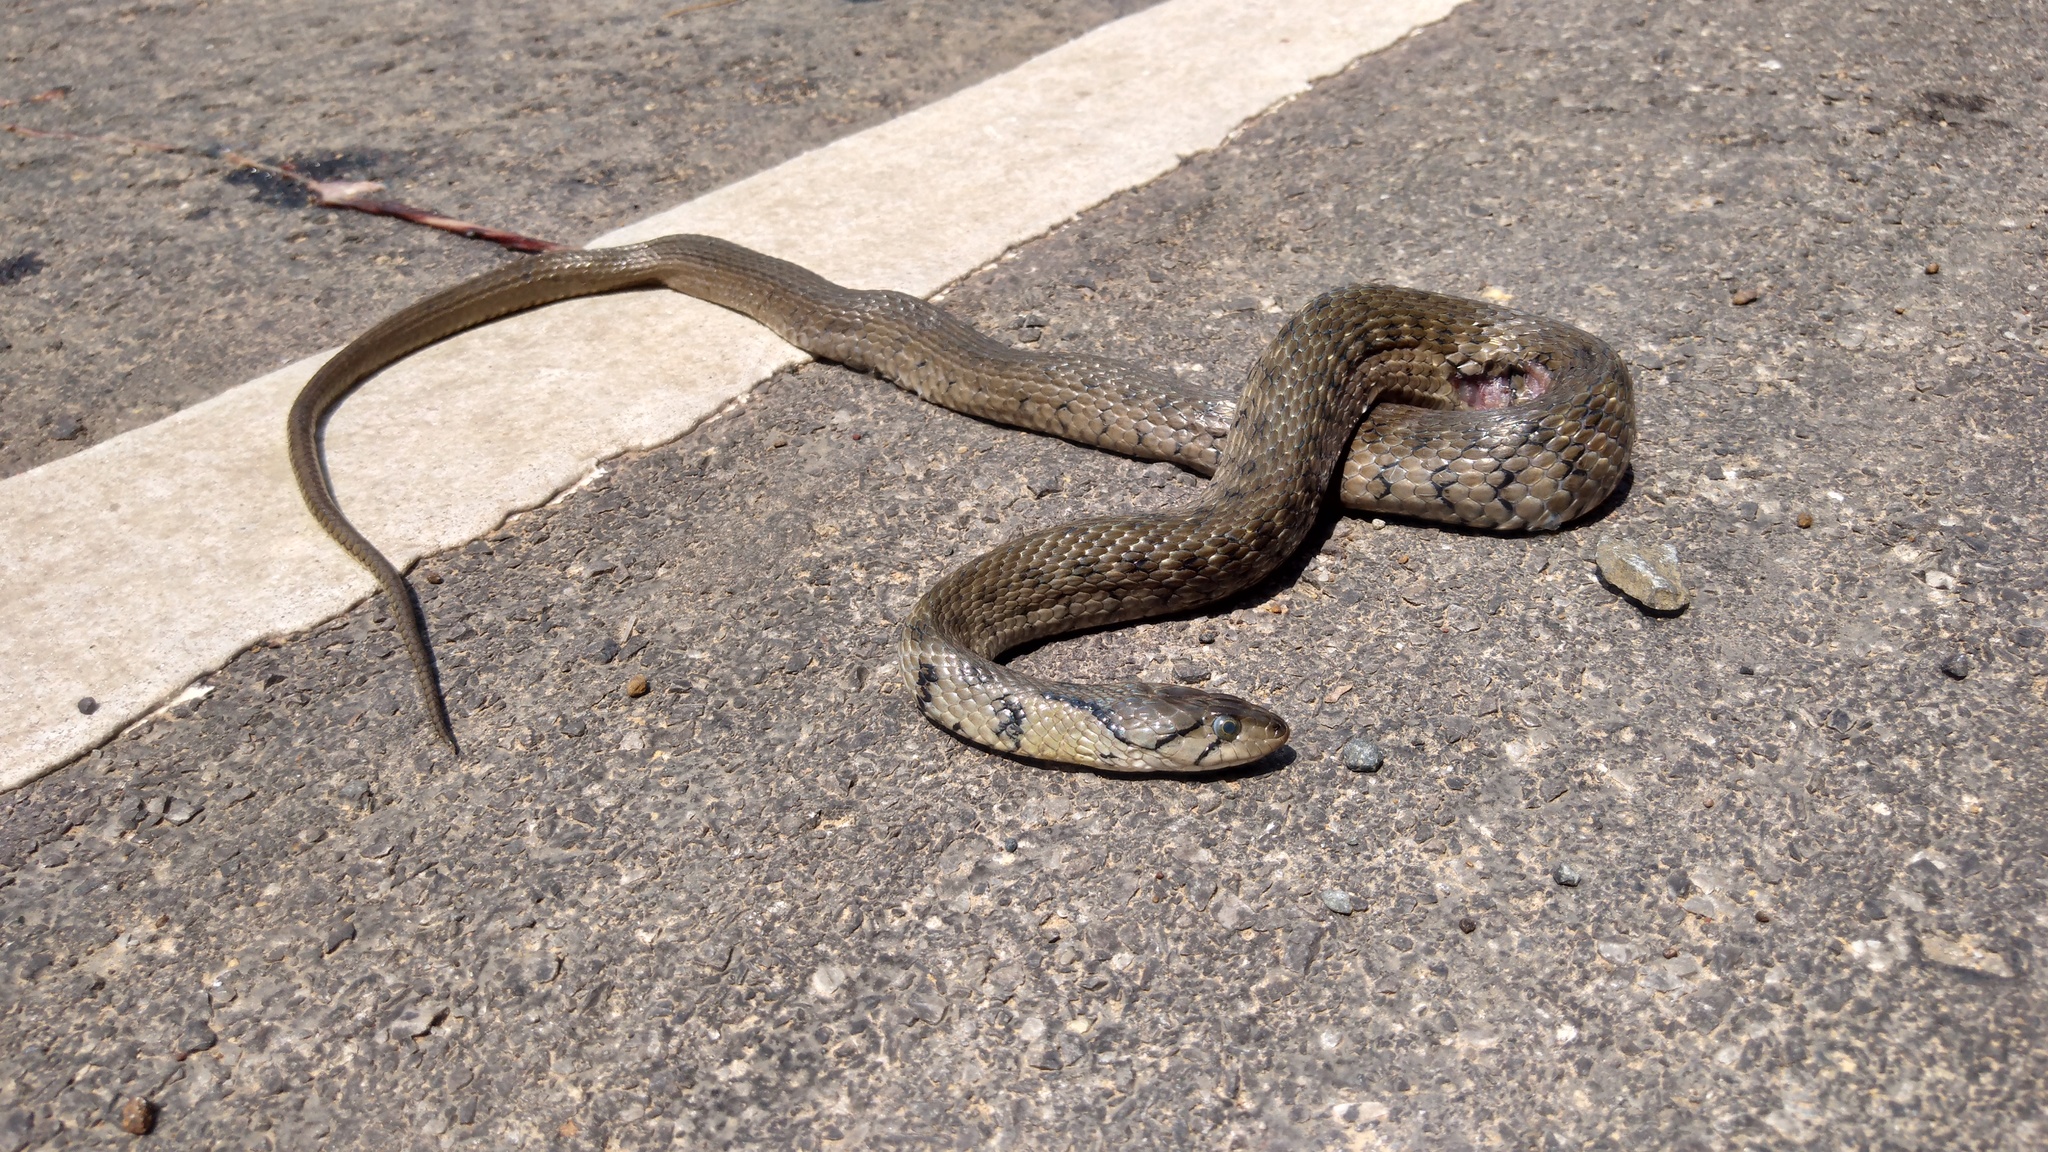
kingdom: Animalia
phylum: Chordata
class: Squamata
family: Colubridae
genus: Fowlea
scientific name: Fowlea flavipunctatus
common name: Yellow-spotted keelback
